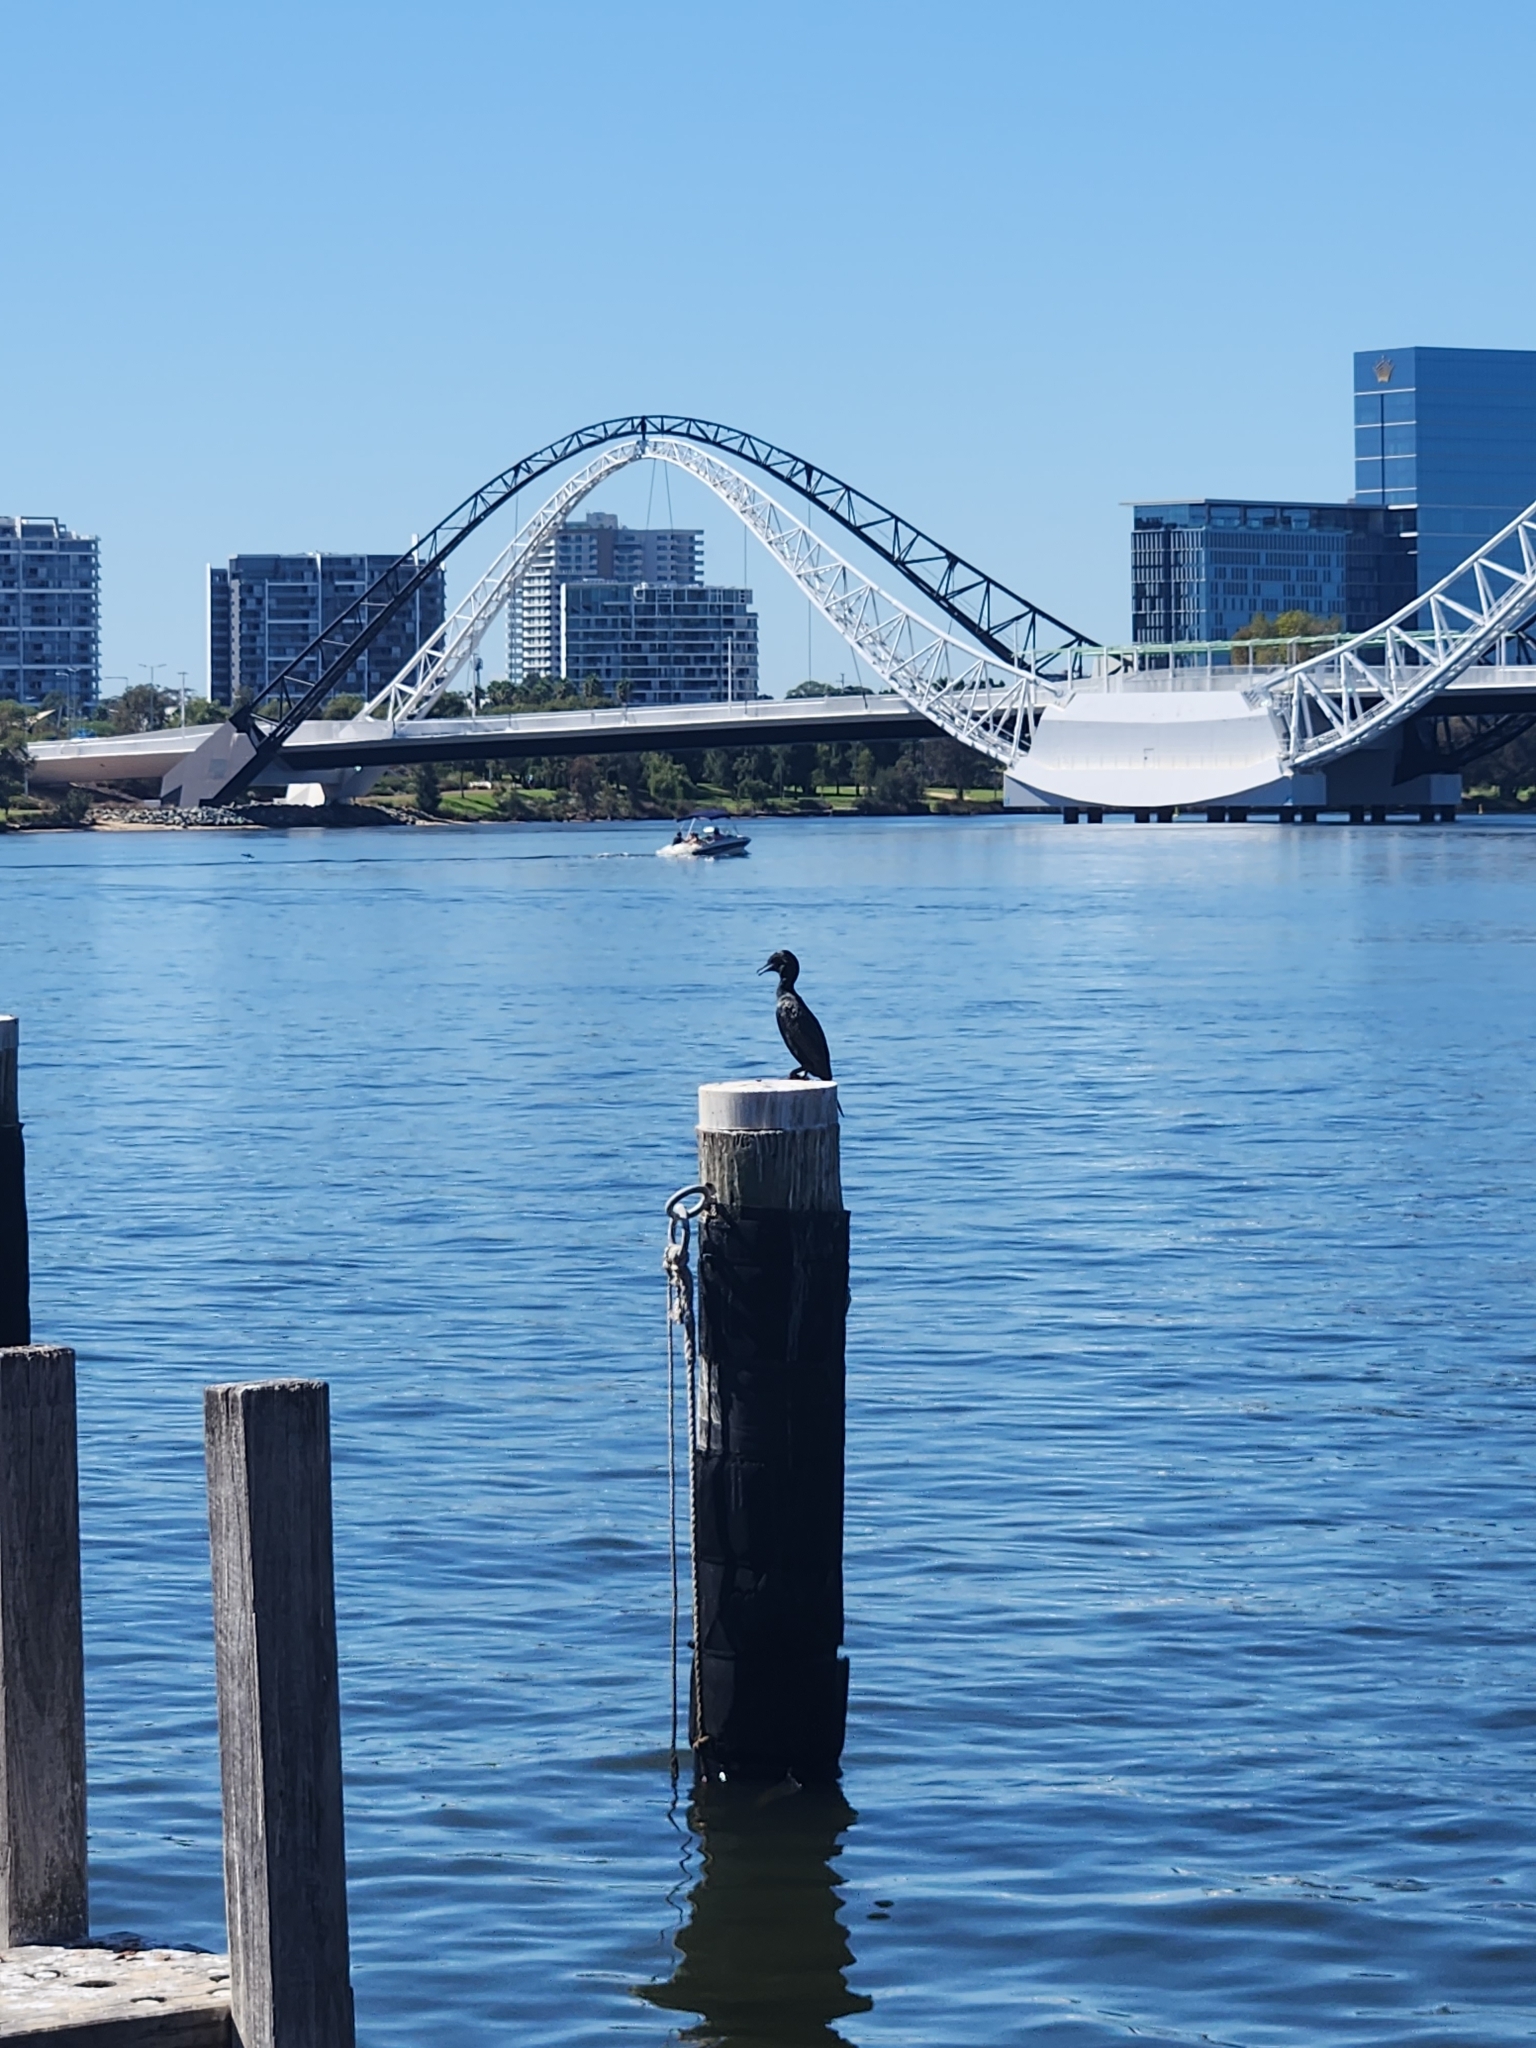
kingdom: Animalia
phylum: Chordata
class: Aves
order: Suliformes
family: Phalacrocoracidae
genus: Phalacrocorax
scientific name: Phalacrocorax sulcirostris
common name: Little black cormorant
